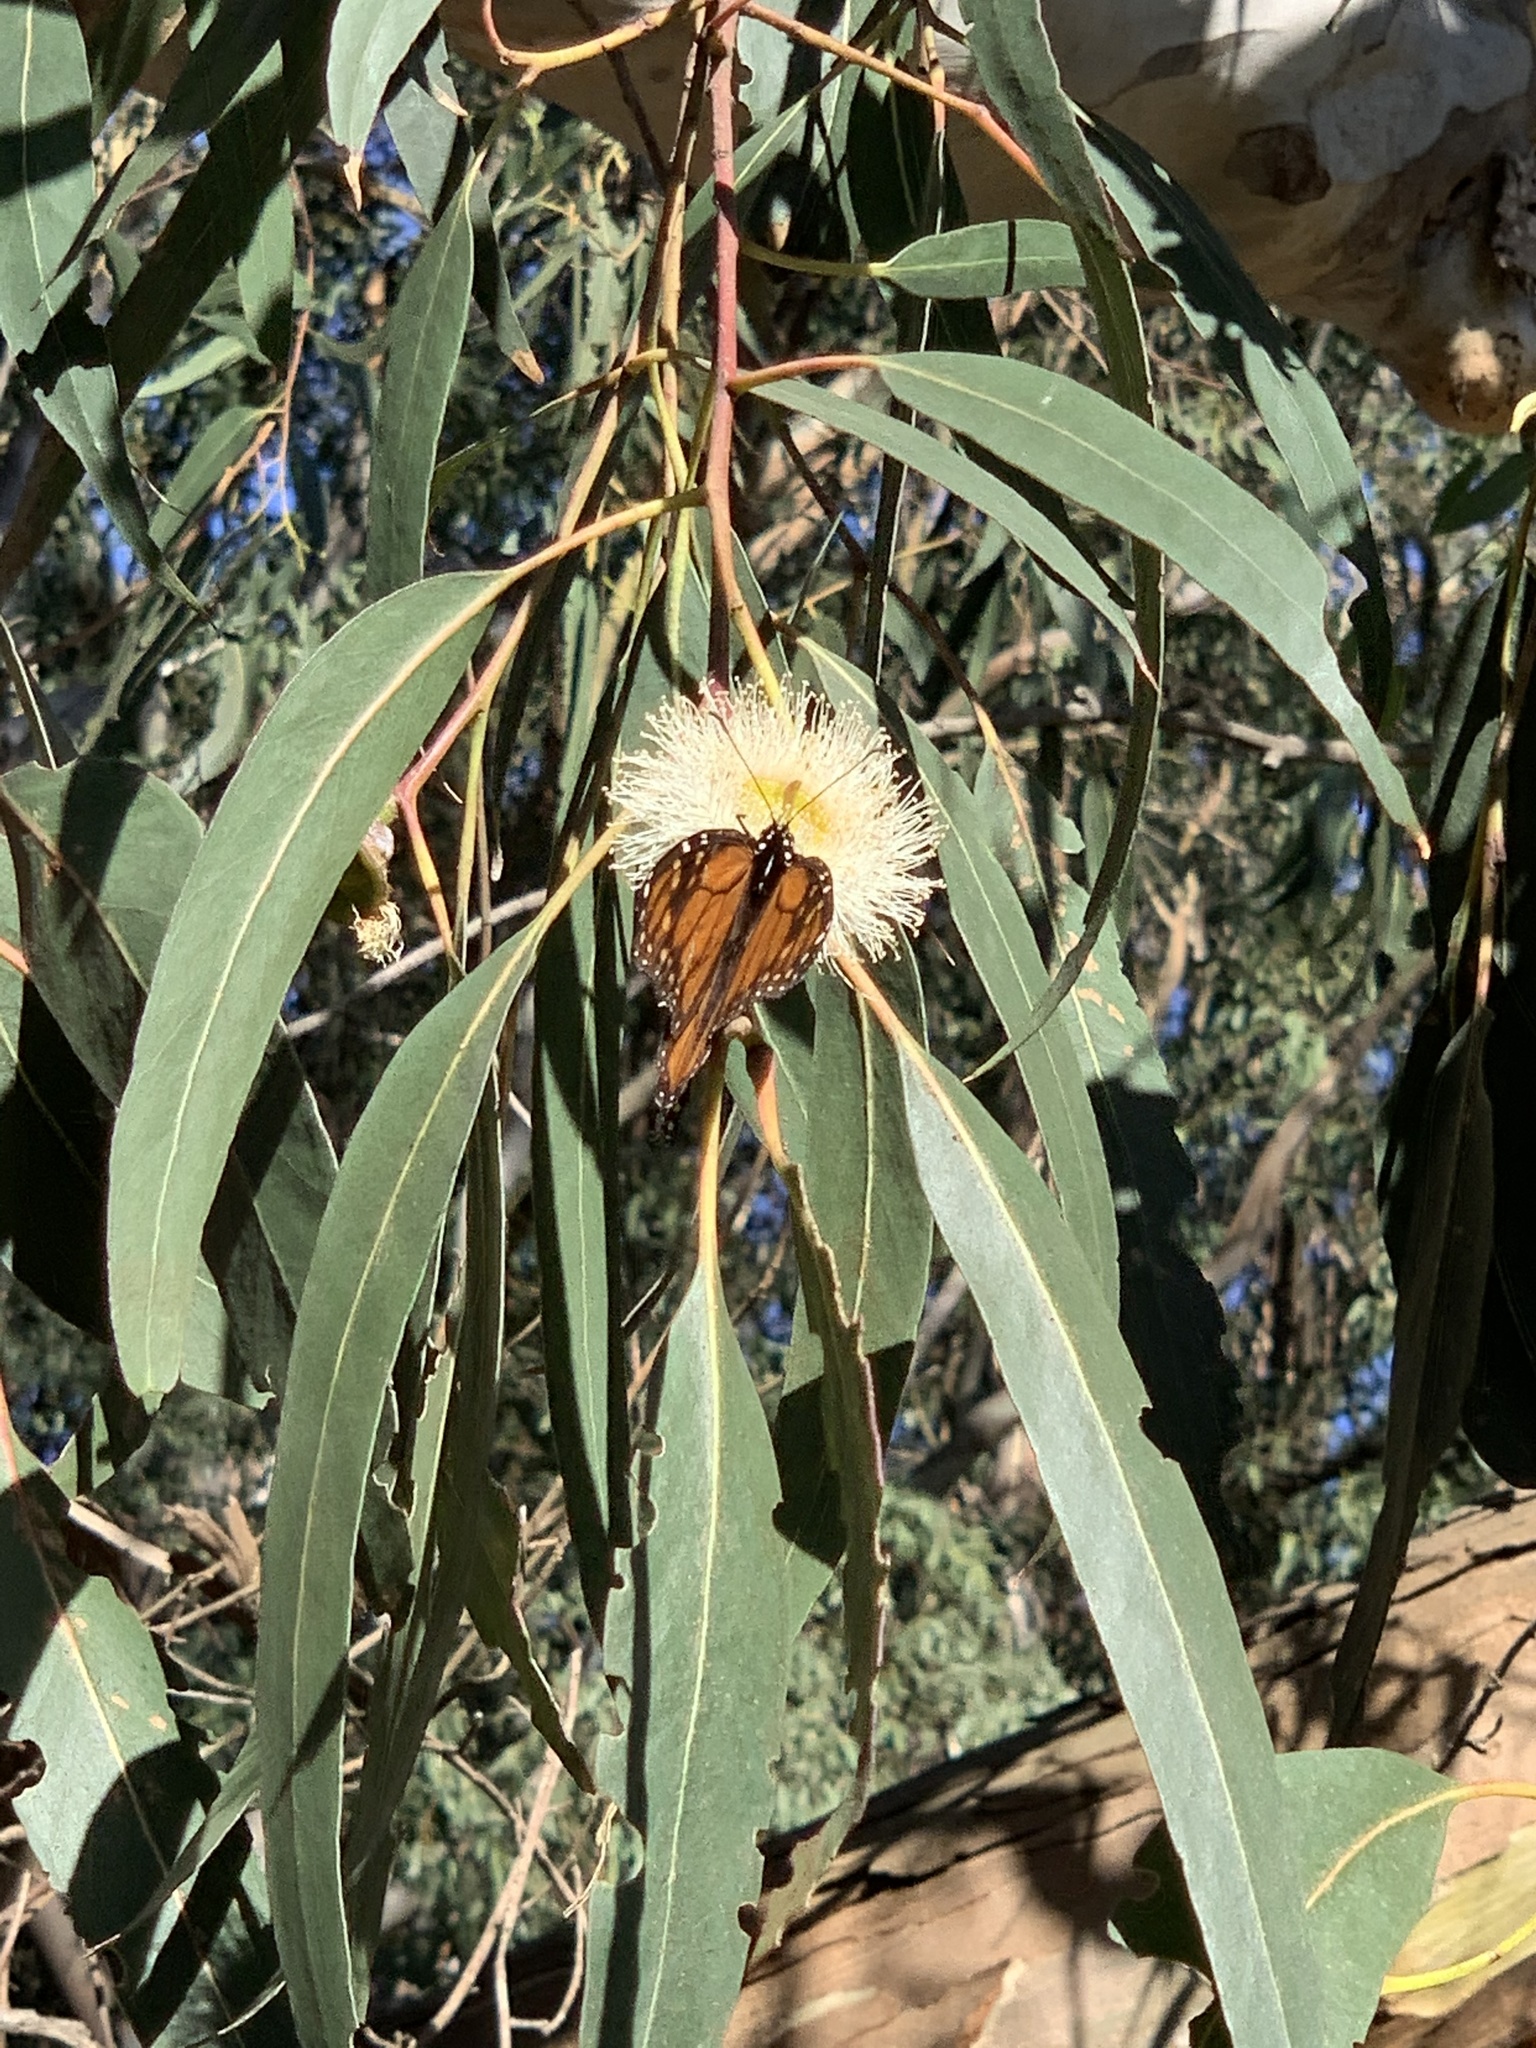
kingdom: Animalia
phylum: Arthropoda
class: Insecta
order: Lepidoptera
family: Nymphalidae
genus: Danaus
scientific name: Danaus plexippus
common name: Monarch
